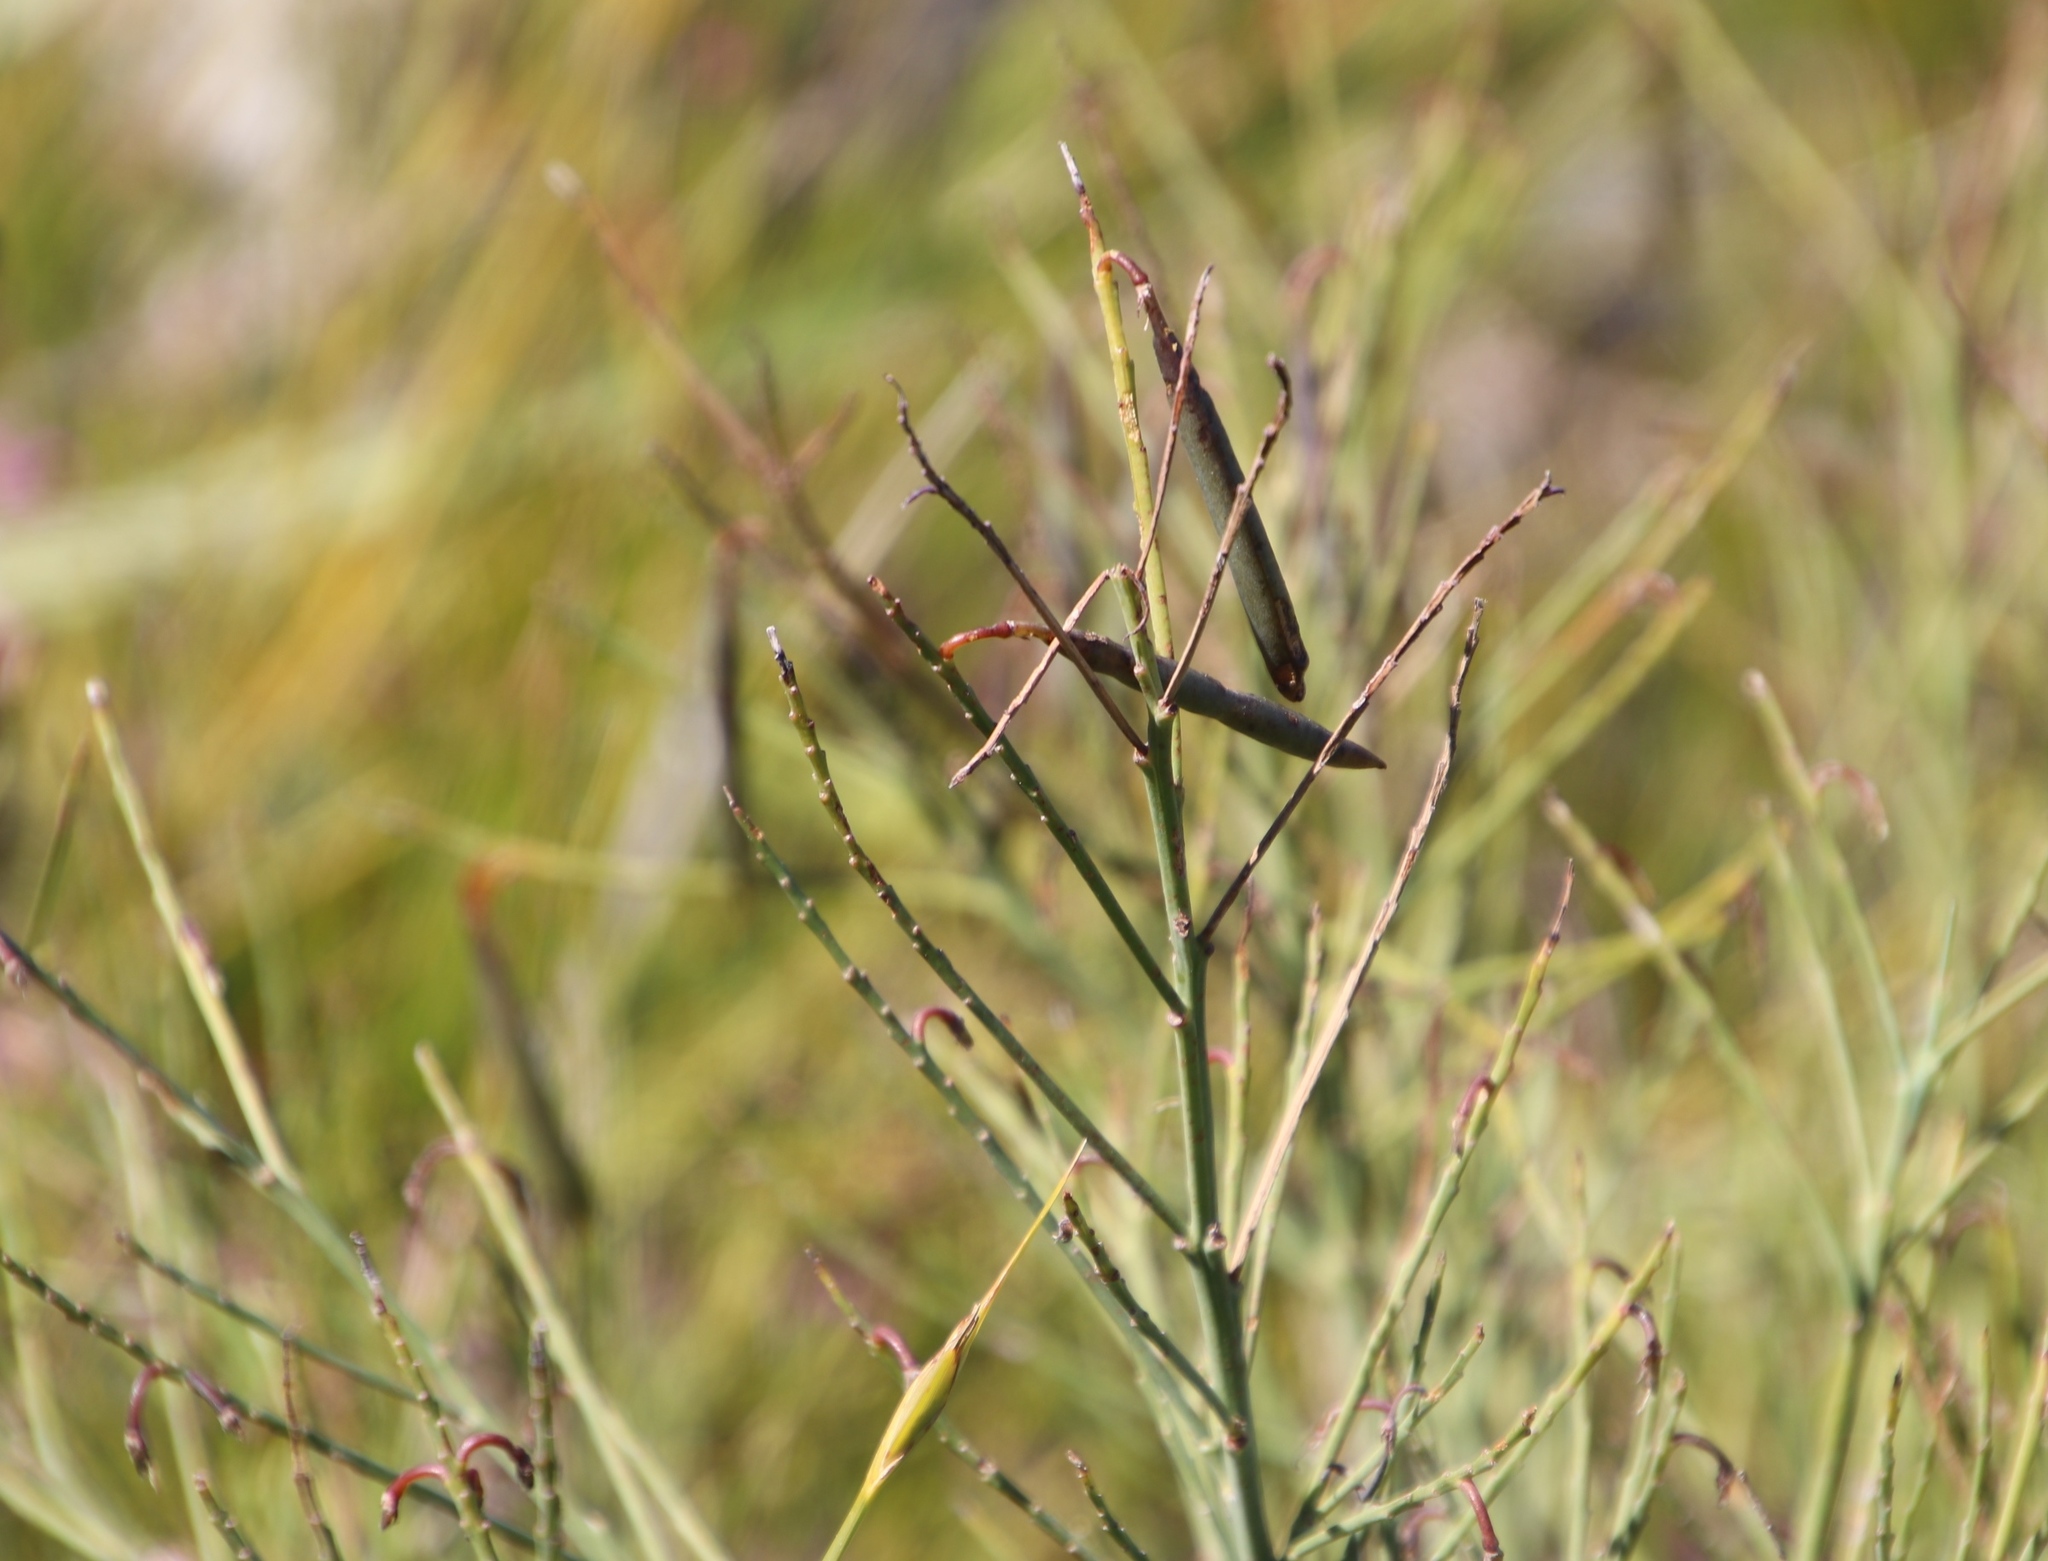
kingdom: Plantae
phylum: Tracheophyta
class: Magnoliopsida
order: Fabales
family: Fabaceae
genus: Indigofera
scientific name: Indigofera filifolia
